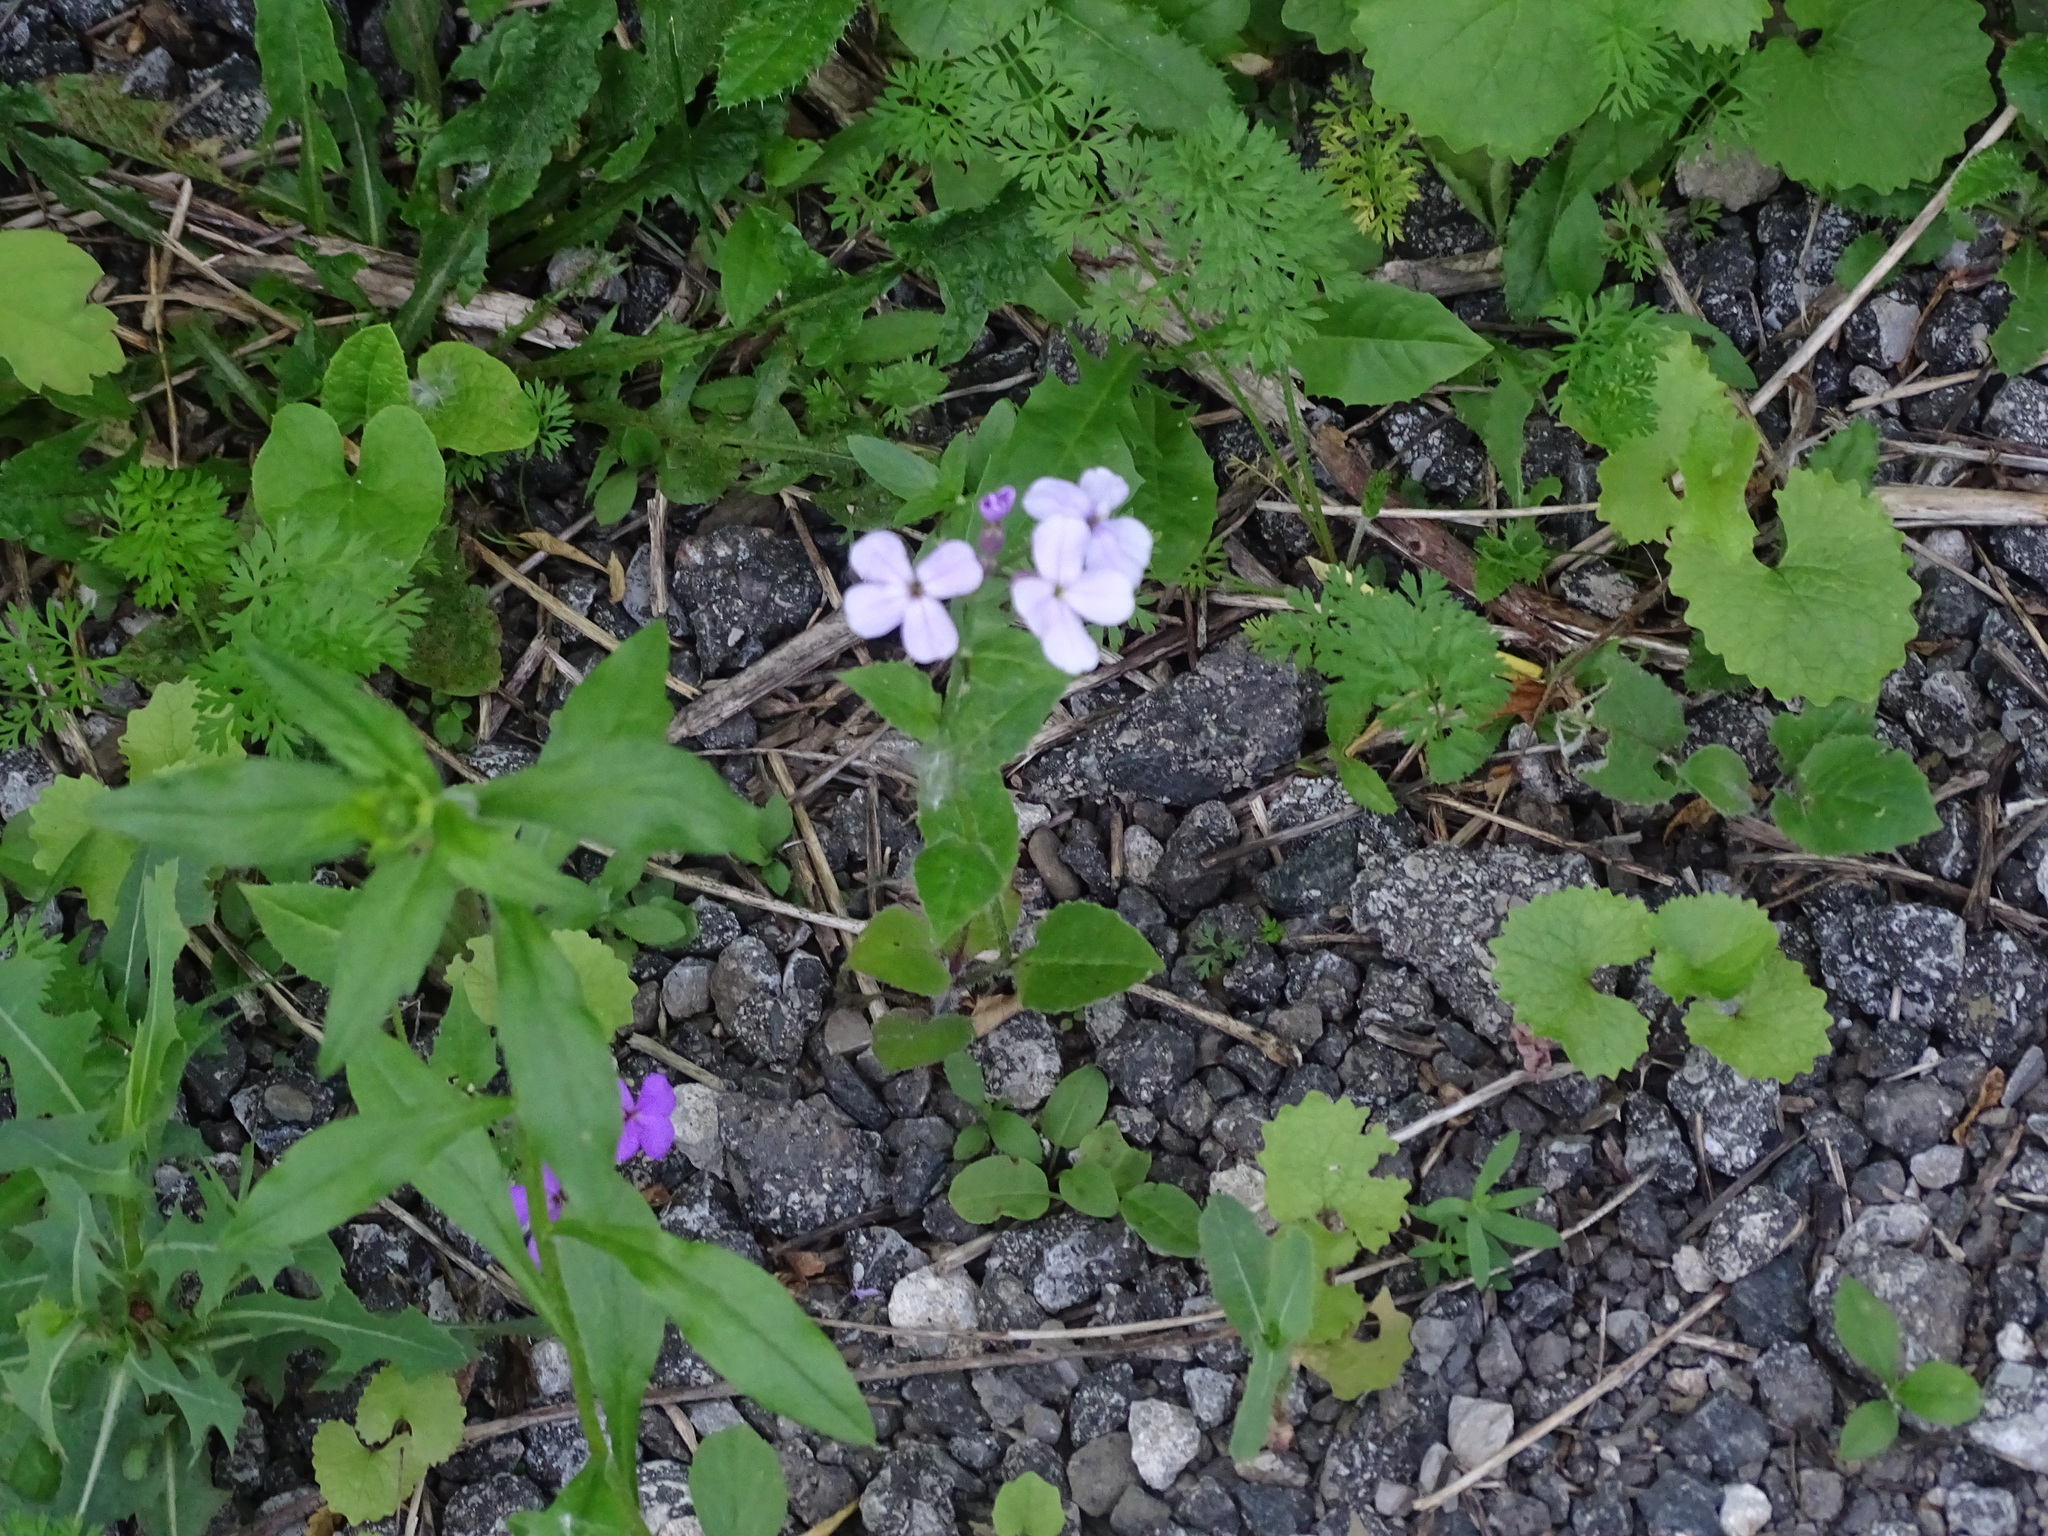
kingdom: Plantae
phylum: Tracheophyta
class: Magnoliopsida
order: Brassicales
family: Brassicaceae
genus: Hesperis
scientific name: Hesperis matronalis
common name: Dame's-violet
